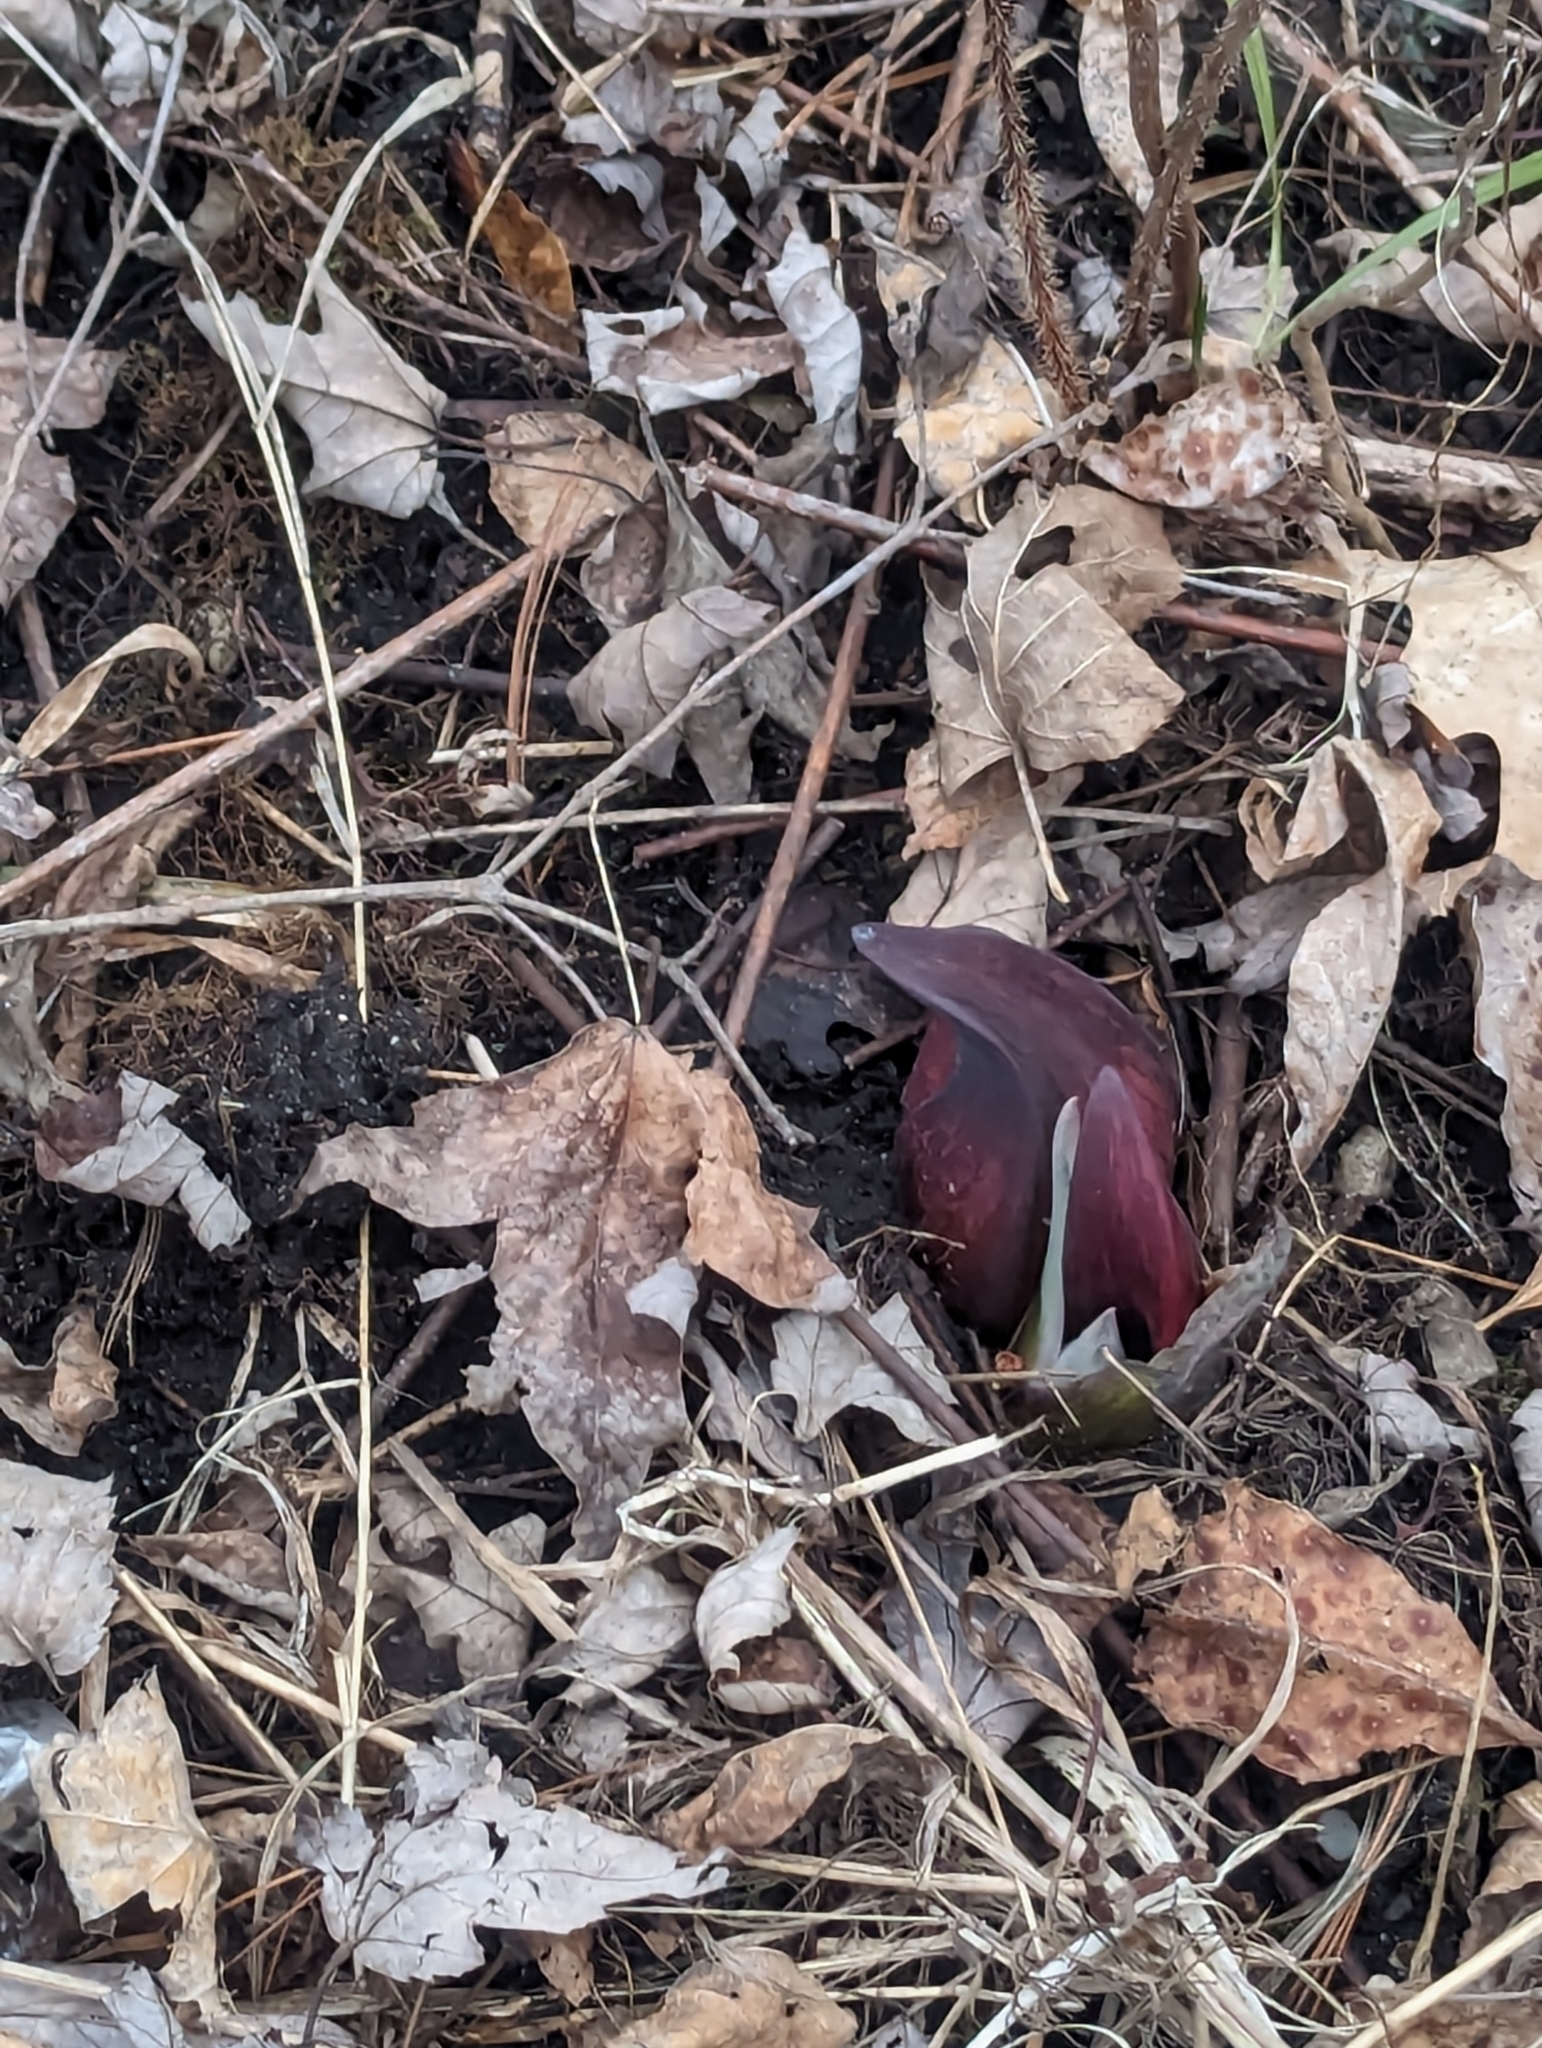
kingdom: Plantae
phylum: Tracheophyta
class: Liliopsida
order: Alismatales
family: Araceae
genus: Symplocarpus
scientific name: Symplocarpus foetidus
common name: Eastern skunk cabbage
